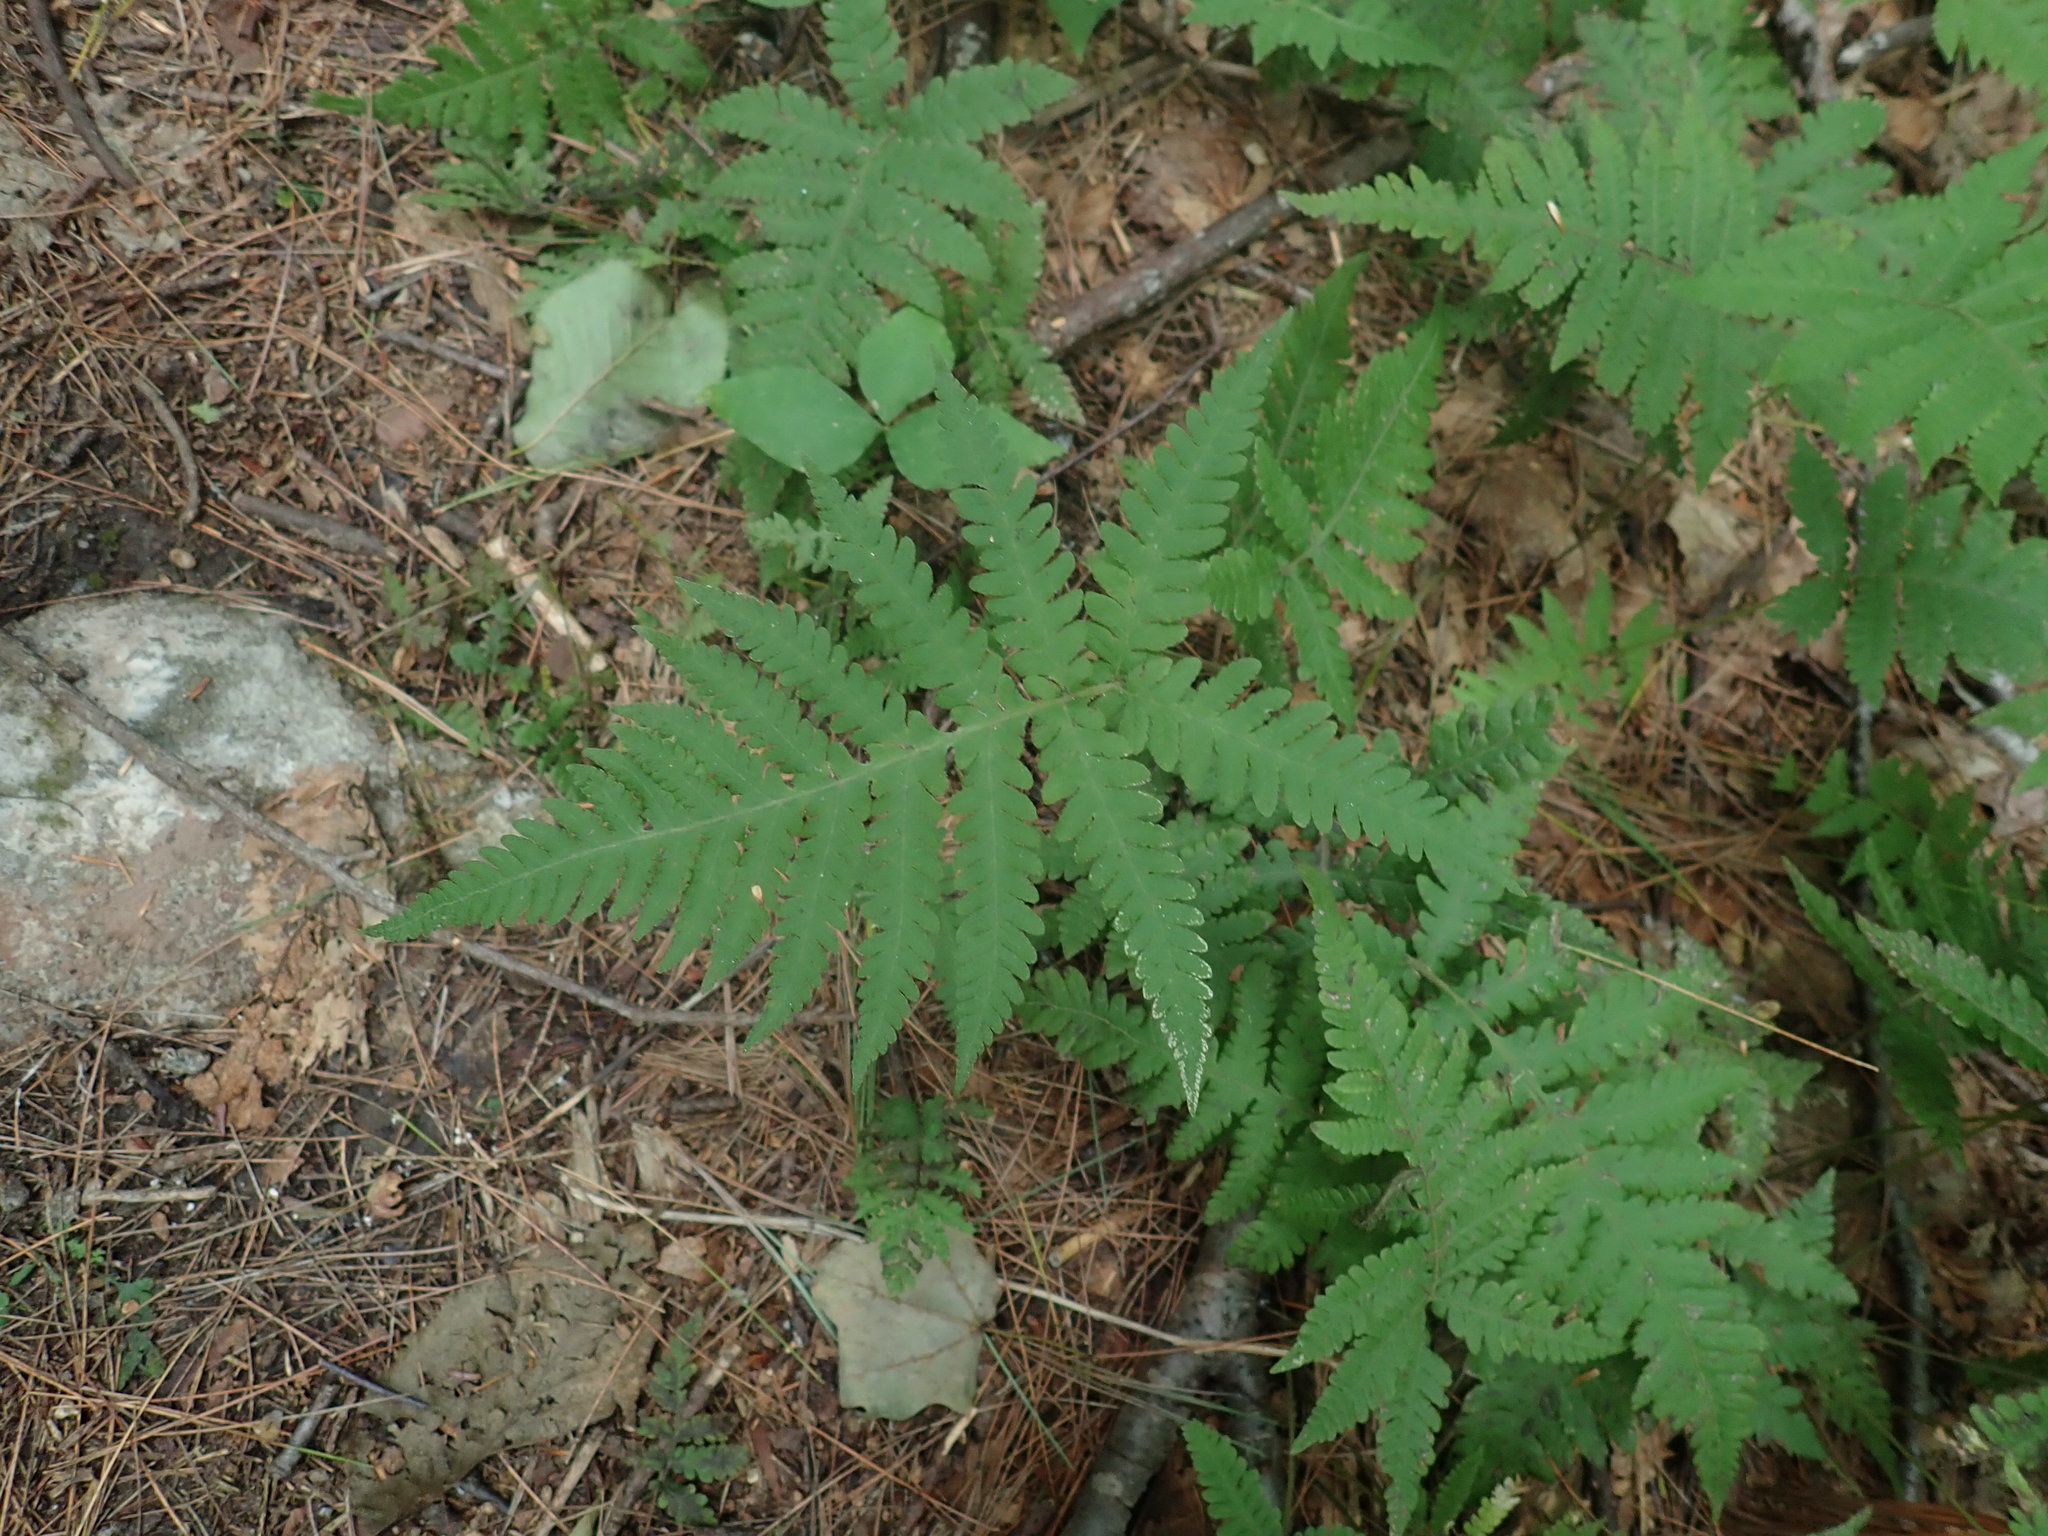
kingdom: Plantae
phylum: Tracheophyta
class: Polypodiopsida
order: Polypodiales
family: Thelypteridaceae
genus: Phegopteris
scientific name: Phegopteris connectilis
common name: Beech fern
